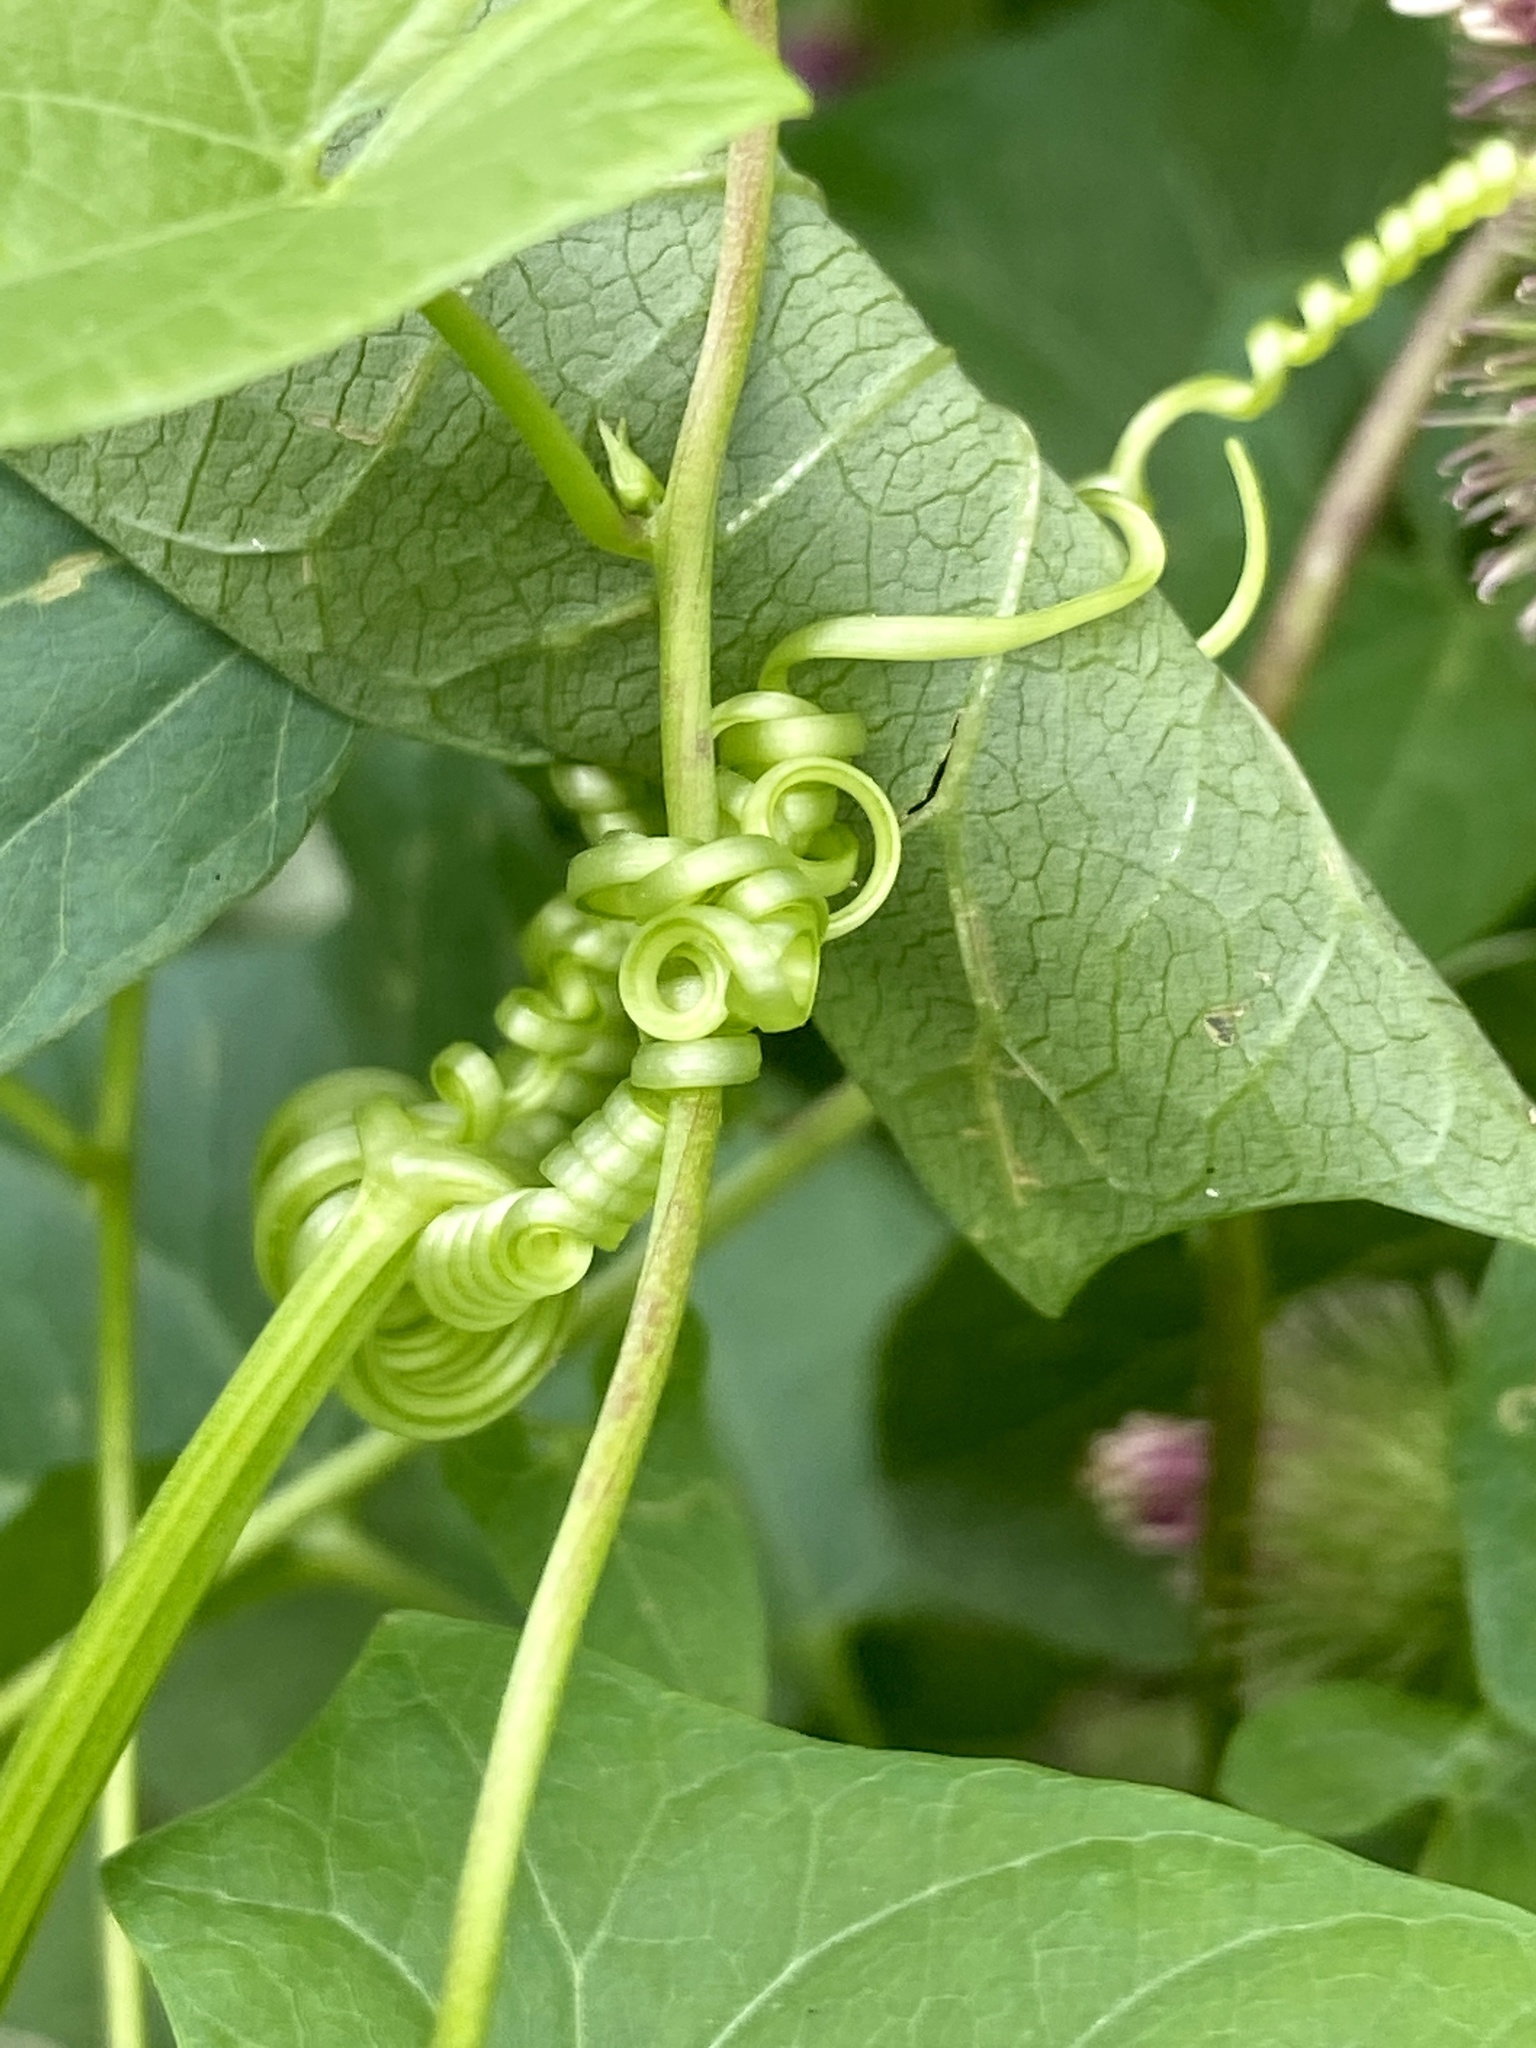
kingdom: Plantae
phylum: Tracheophyta
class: Magnoliopsida
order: Cucurbitales
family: Cucurbitaceae
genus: Echinocystis
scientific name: Echinocystis lobata
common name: Wild cucumber
